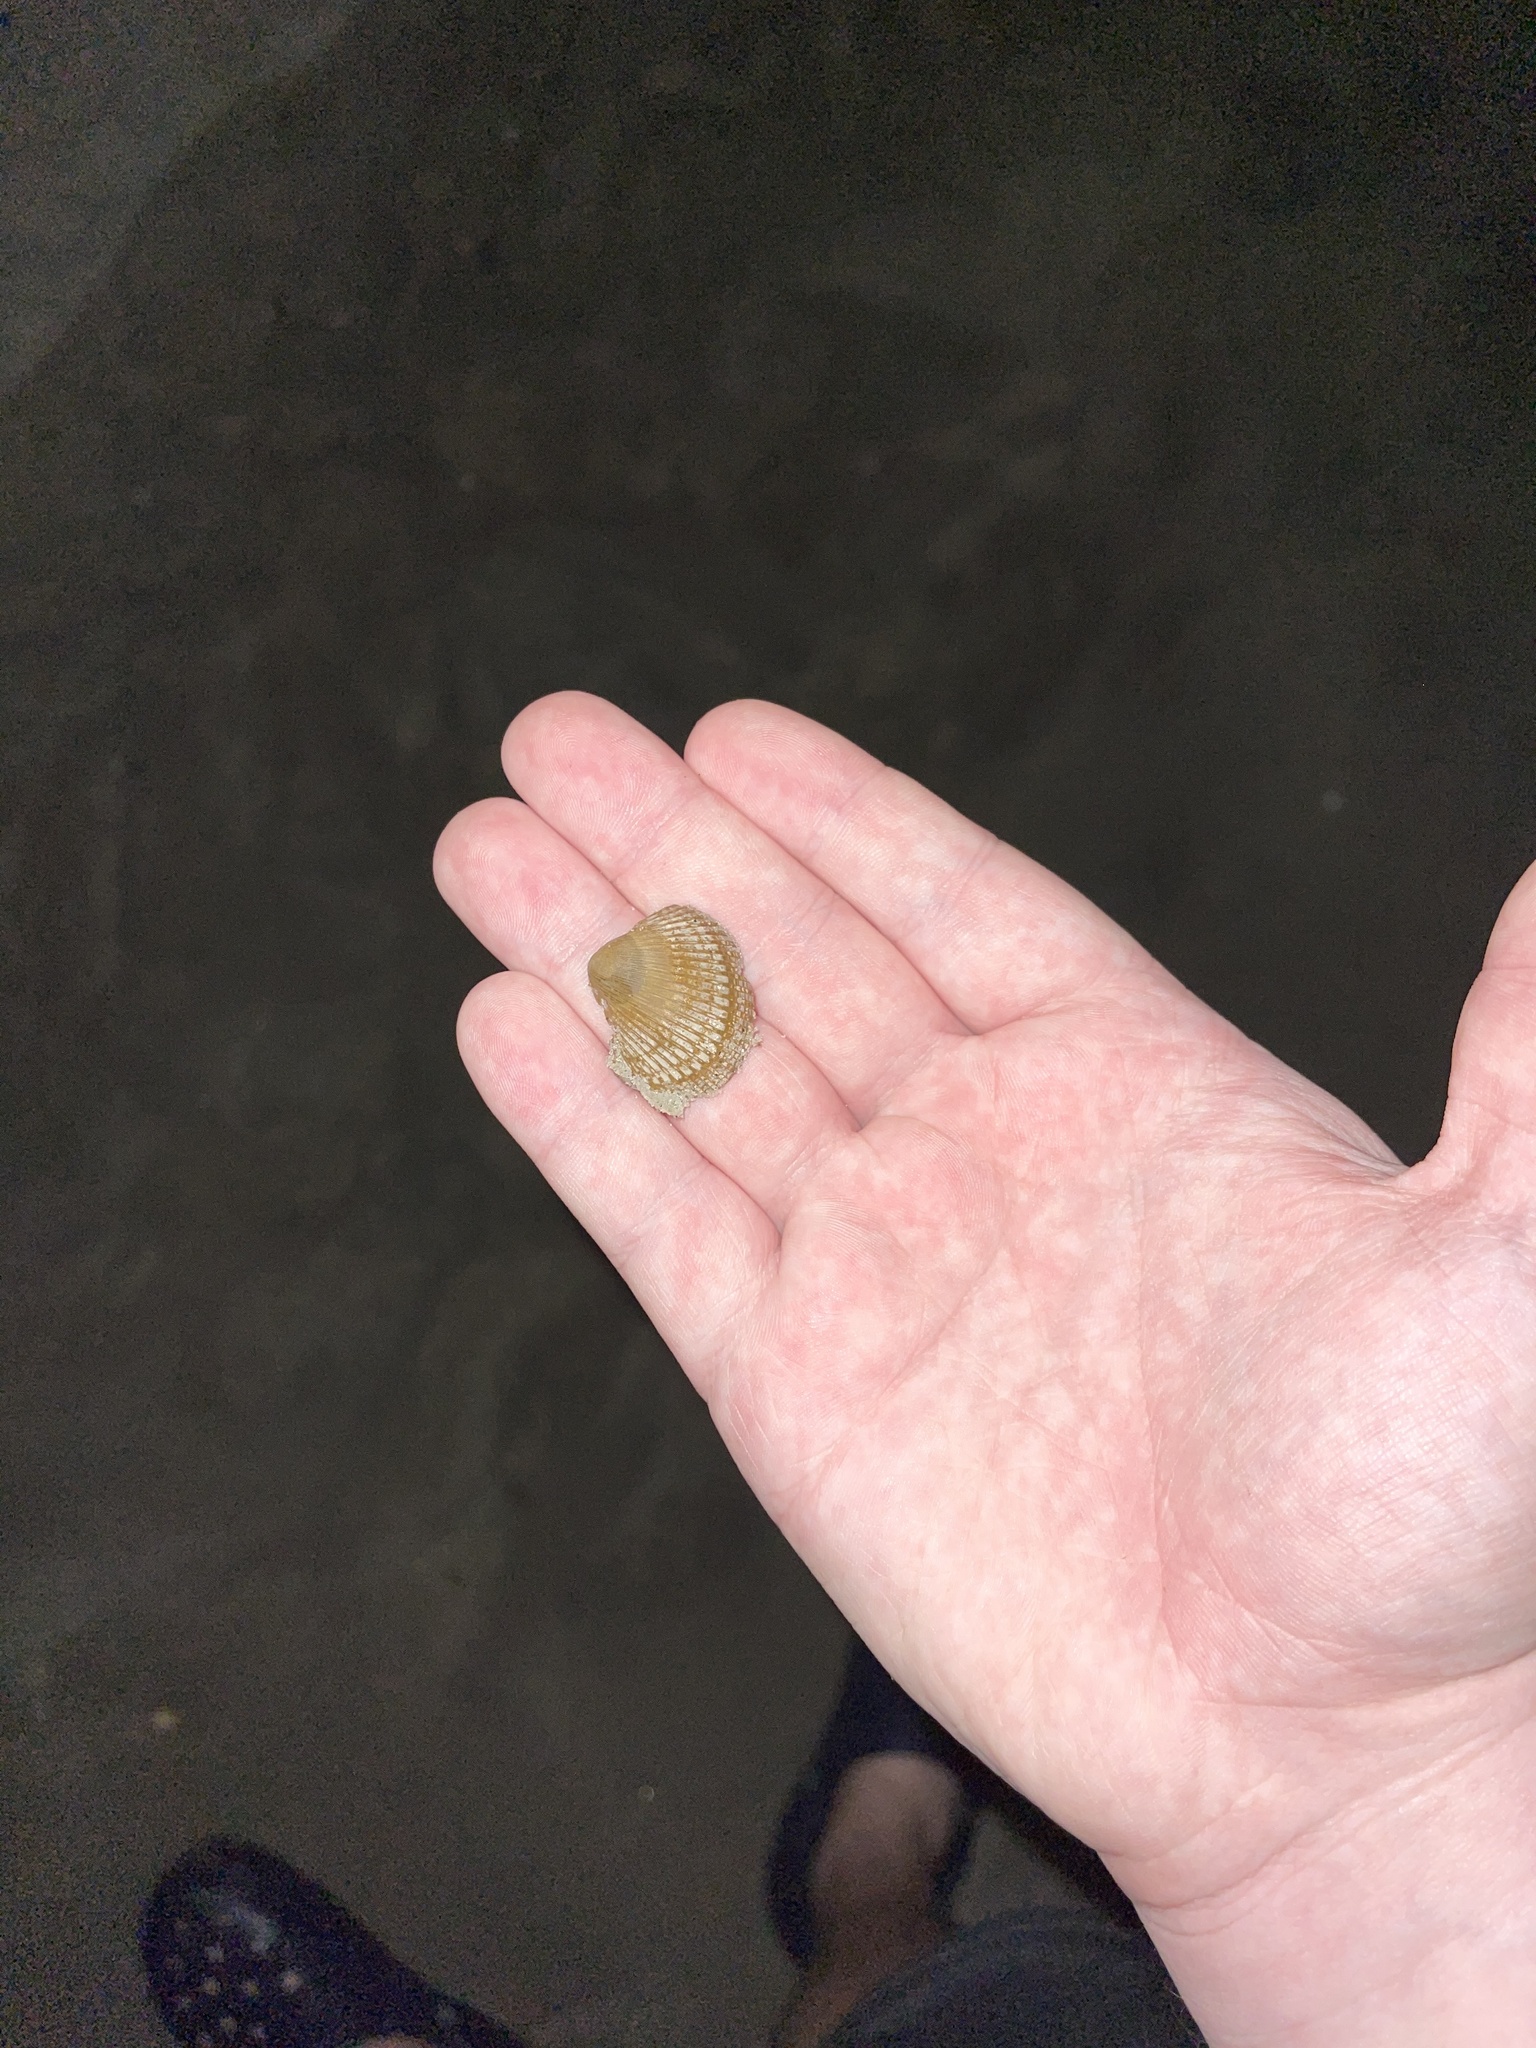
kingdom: Animalia
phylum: Mollusca
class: Bivalvia
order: Arcida
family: Arcidae
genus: Lunarca
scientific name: Lunarca ovalis
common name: Blood ark
